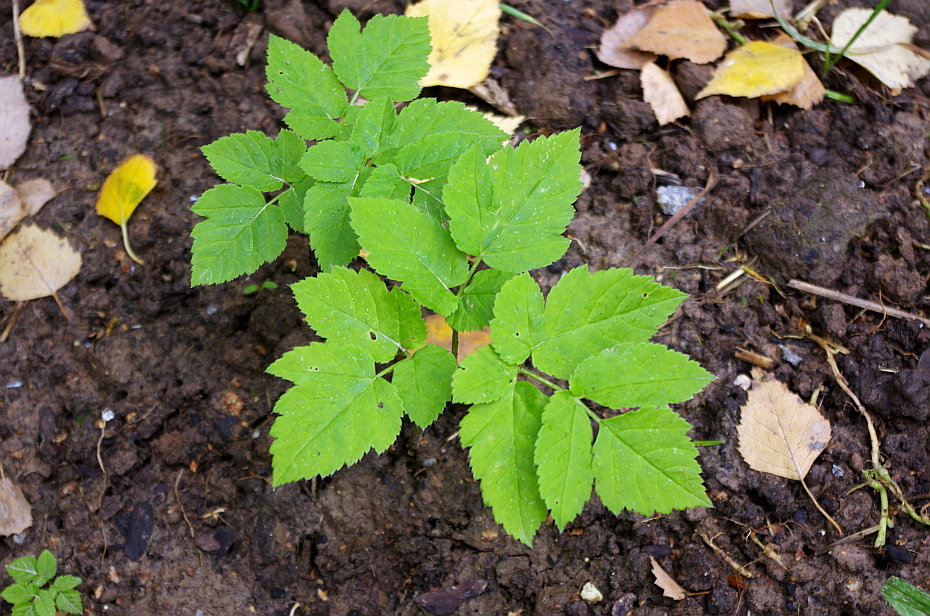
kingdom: Plantae
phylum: Tracheophyta
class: Magnoliopsida
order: Apiales
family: Apiaceae
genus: Aegopodium
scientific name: Aegopodium podagraria
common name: Ground-elder
